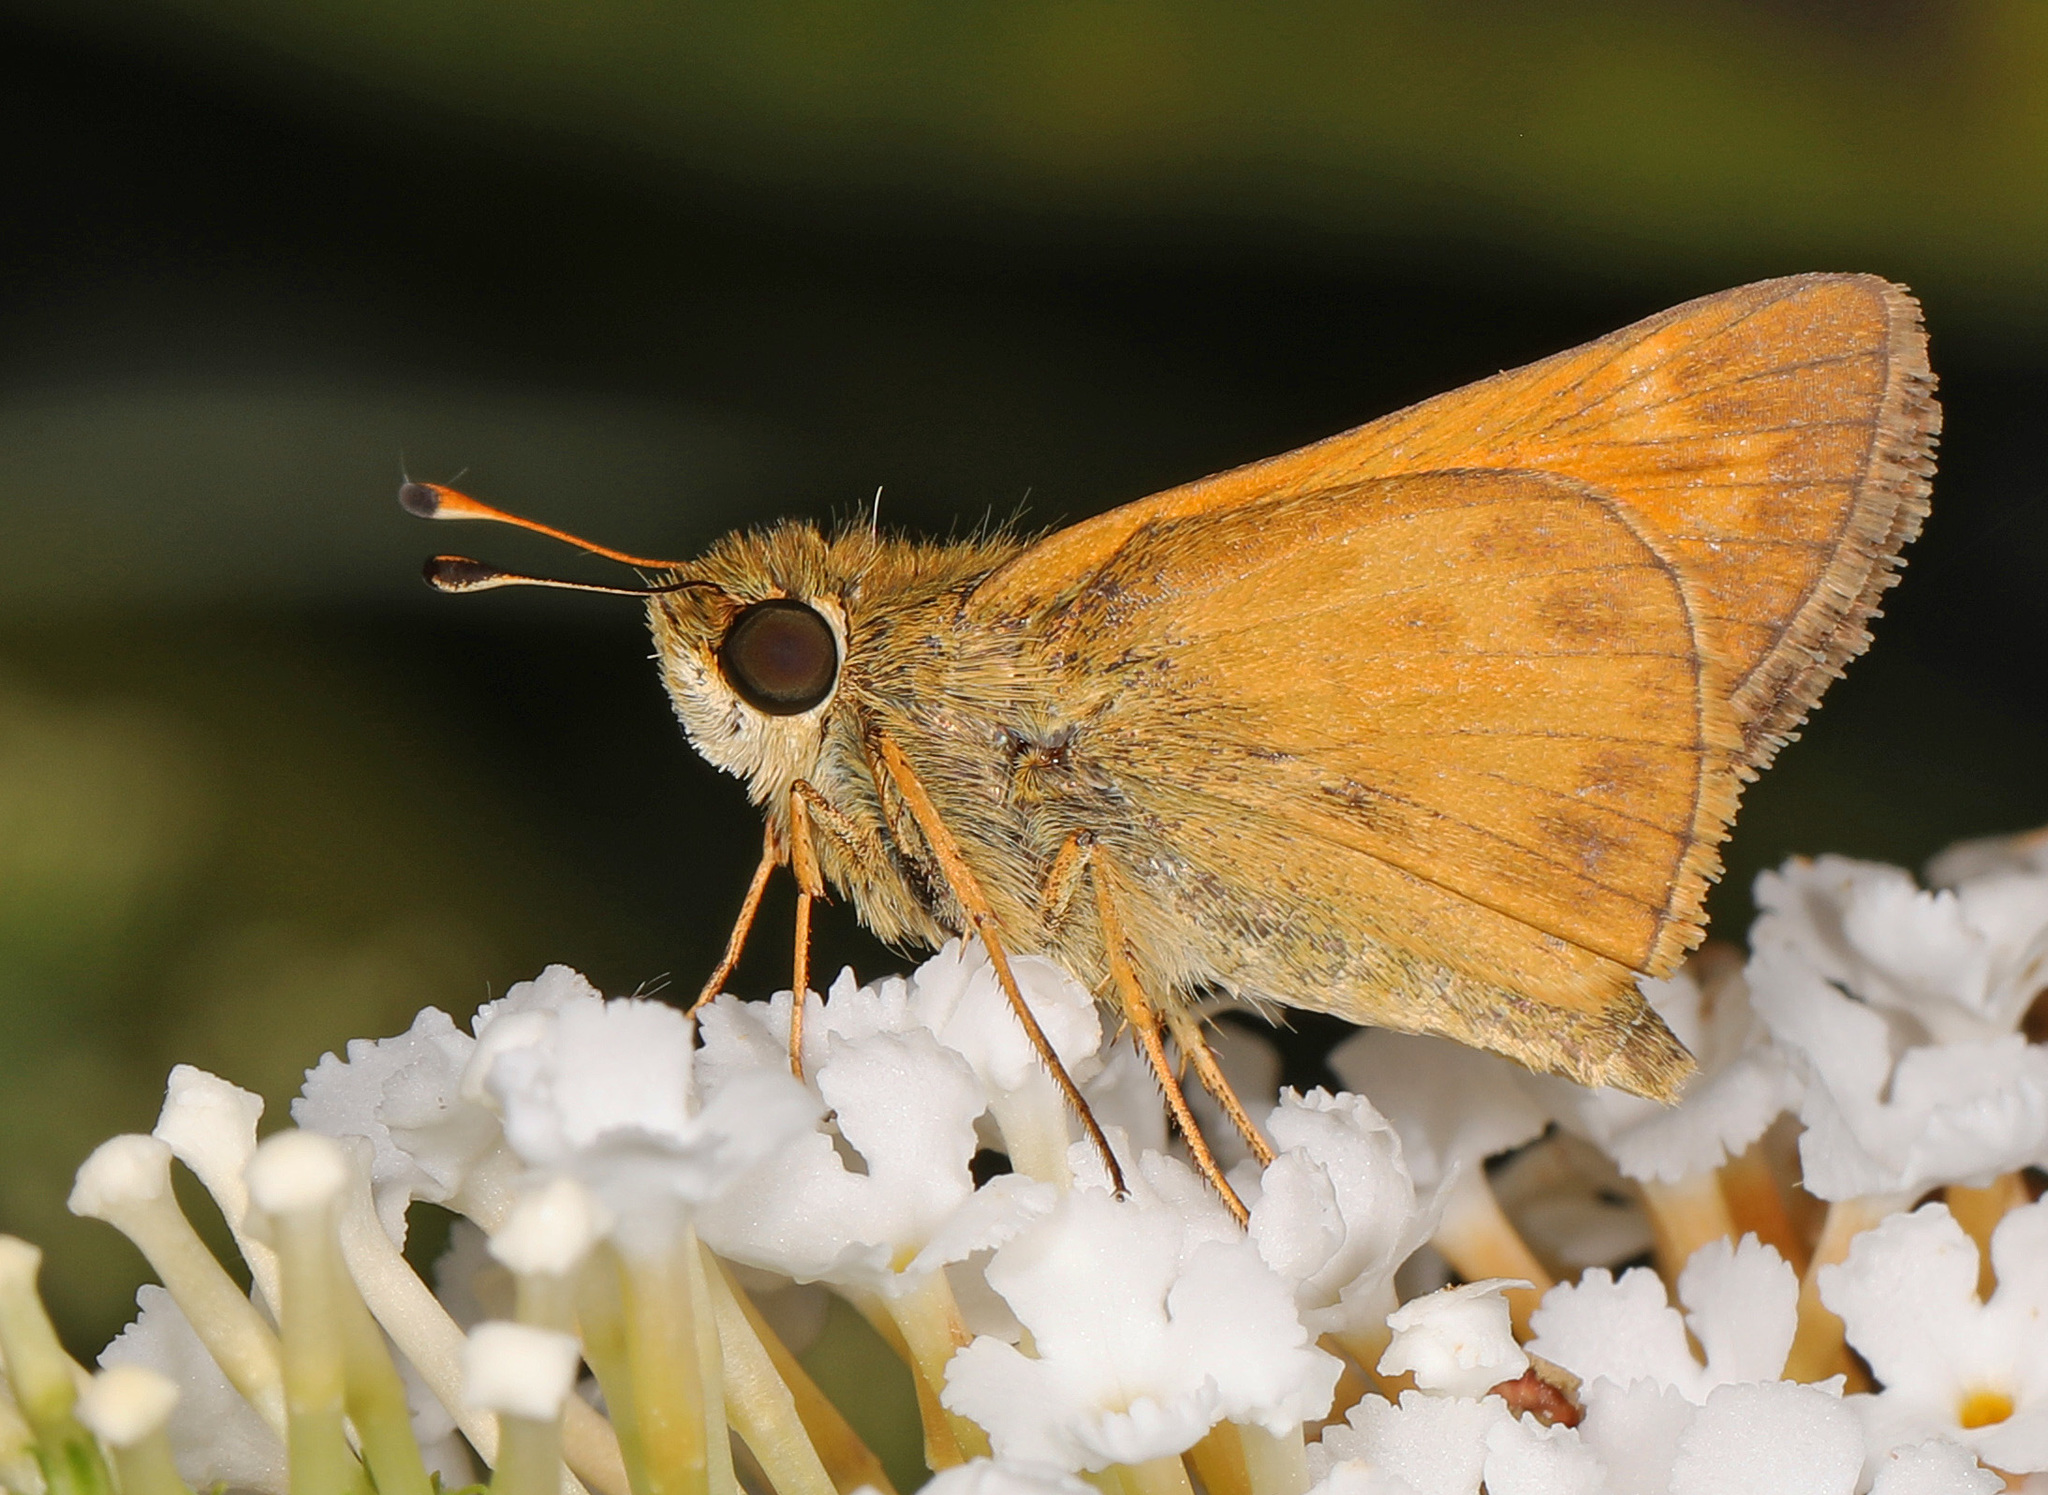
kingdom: Animalia
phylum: Arthropoda
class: Insecta
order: Lepidoptera
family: Hesperiidae
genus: Atalopedes
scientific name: Atalopedes
